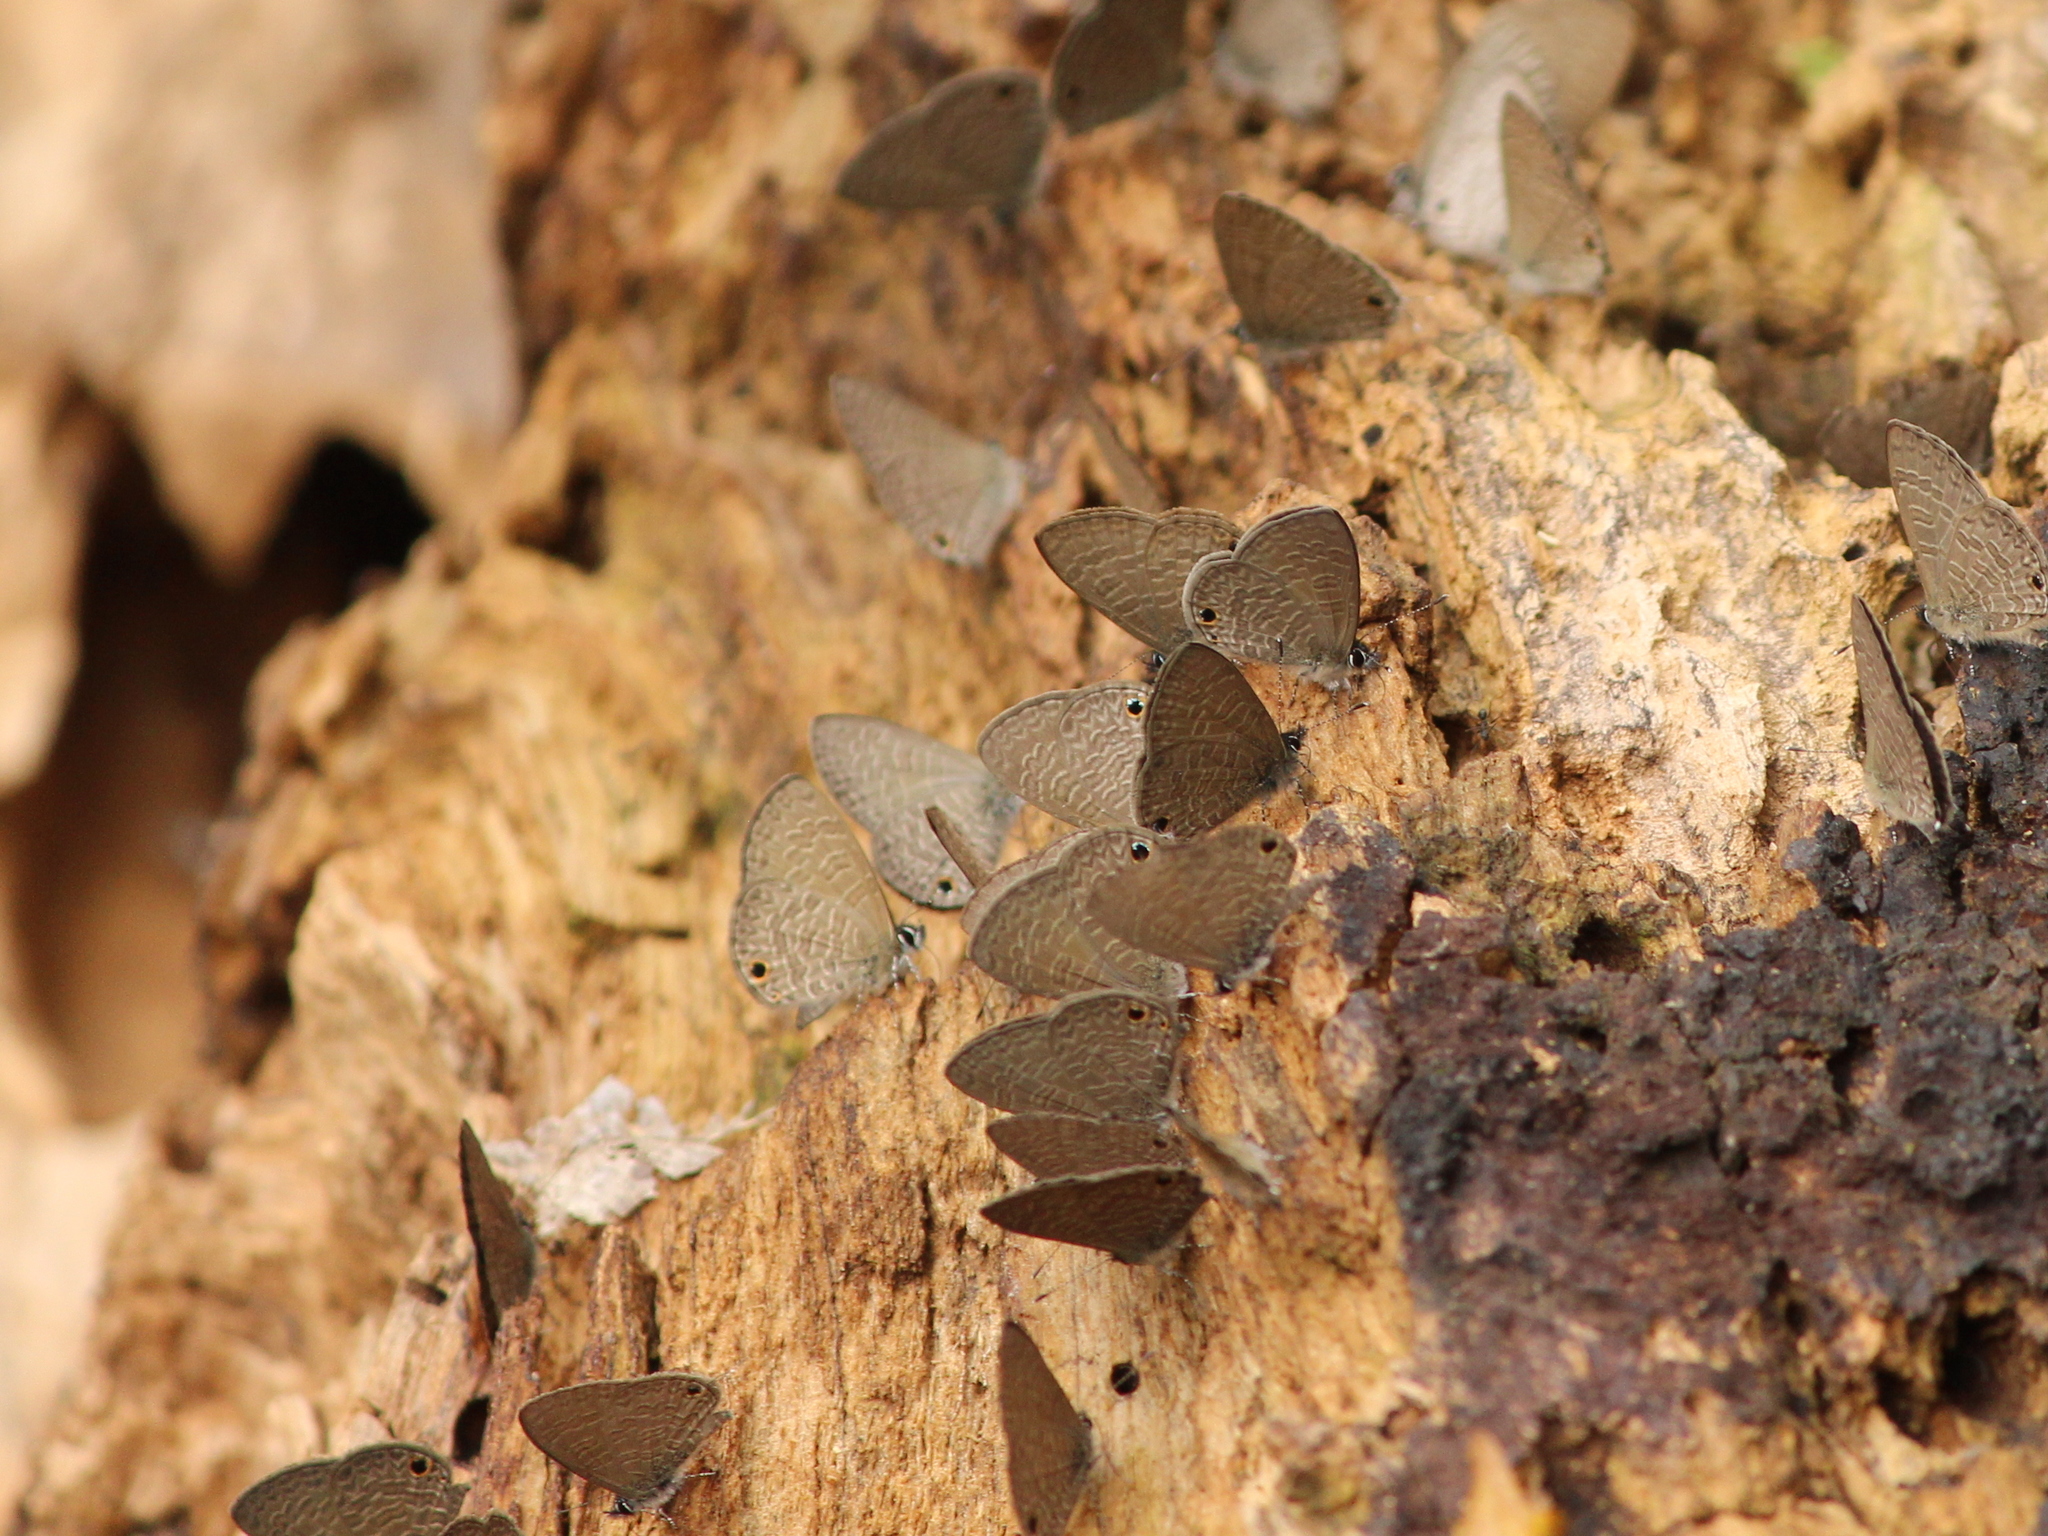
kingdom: Animalia
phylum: Arthropoda
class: Insecta
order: Lepidoptera
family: Lycaenidae
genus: Prosotas
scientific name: Prosotas dubiosa
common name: Tailless lineblue
